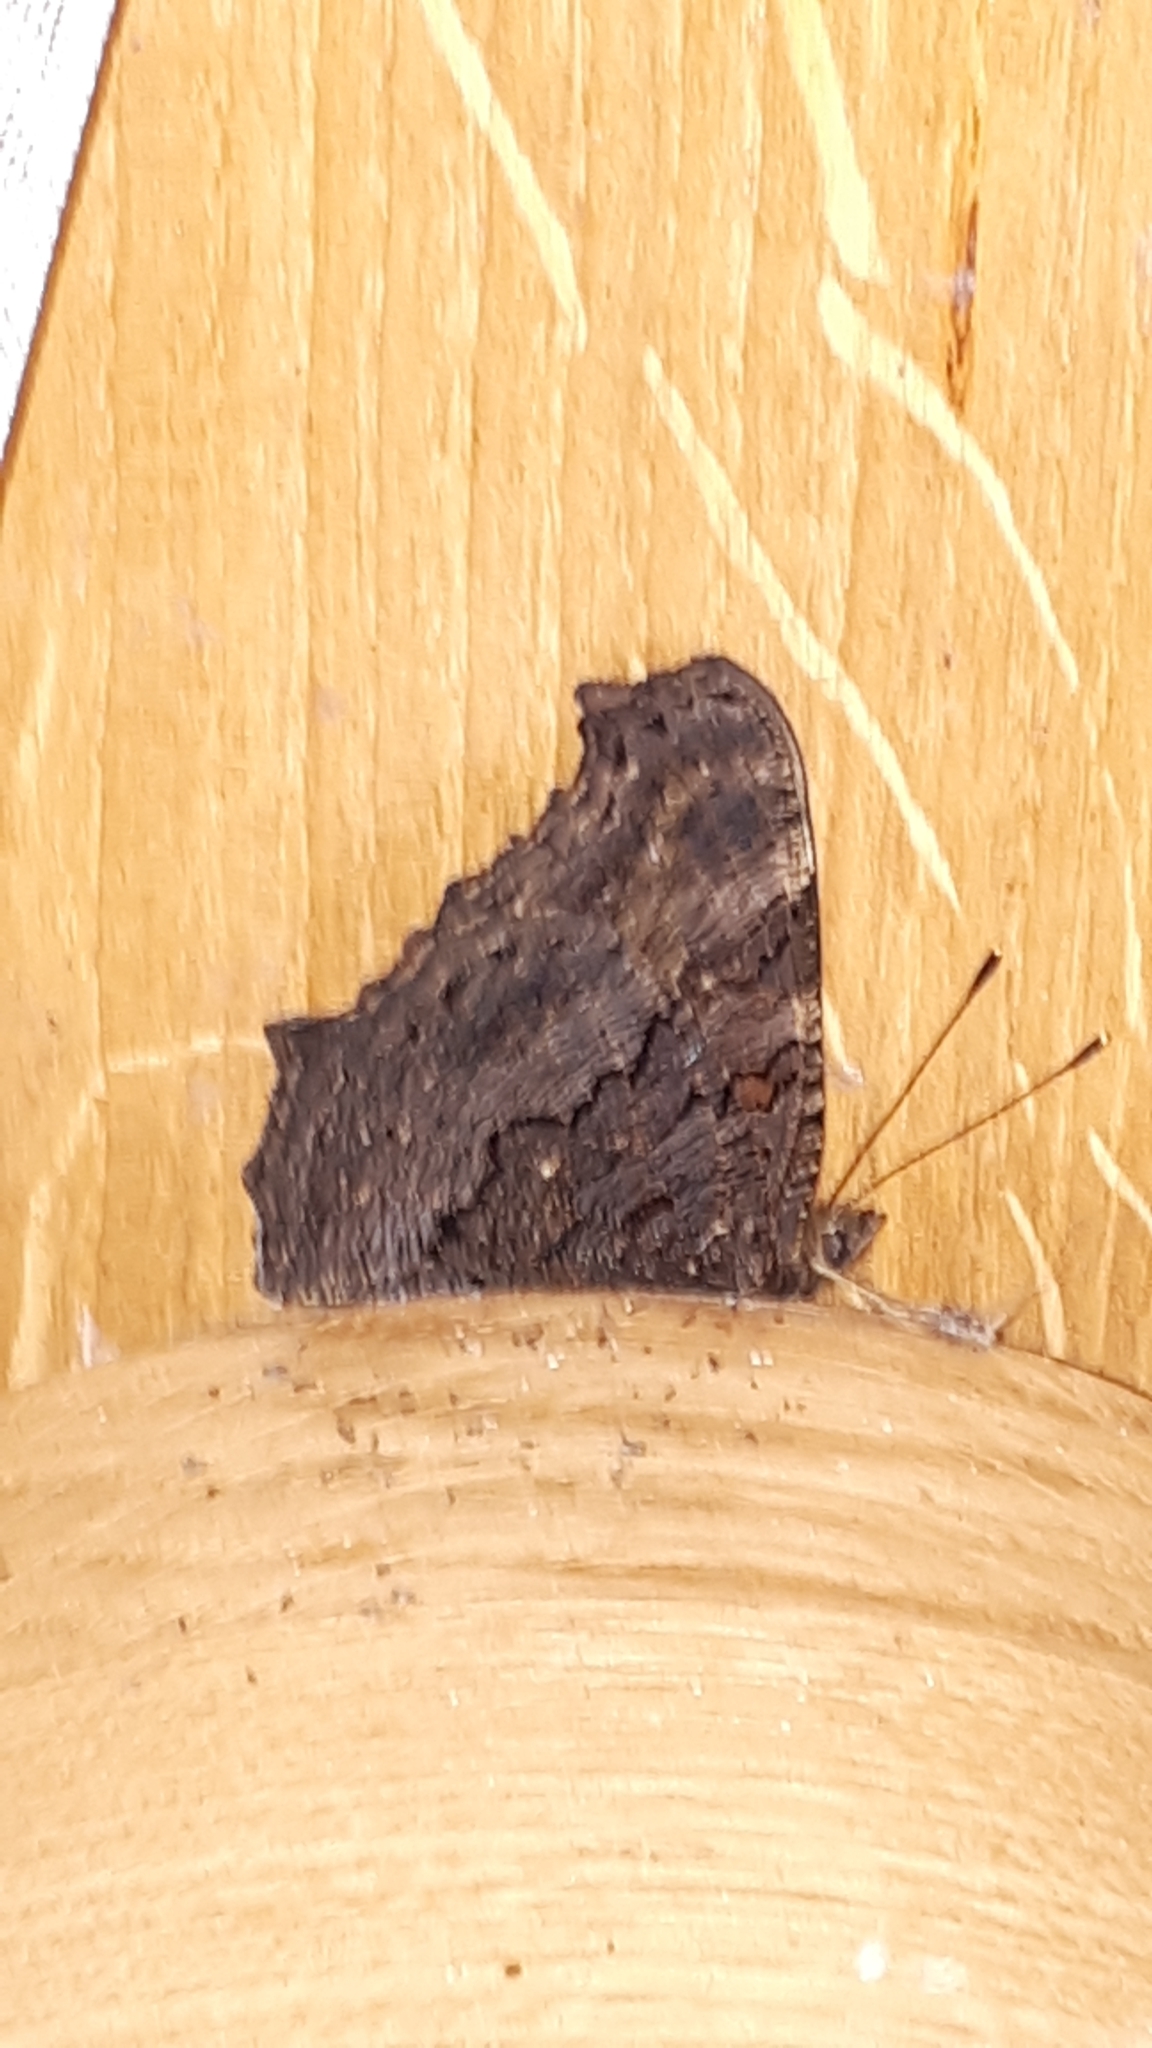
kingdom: Animalia
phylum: Arthropoda
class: Insecta
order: Lepidoptera
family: Nymphalidae
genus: Aglais
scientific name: Aglais io
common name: Peacock
